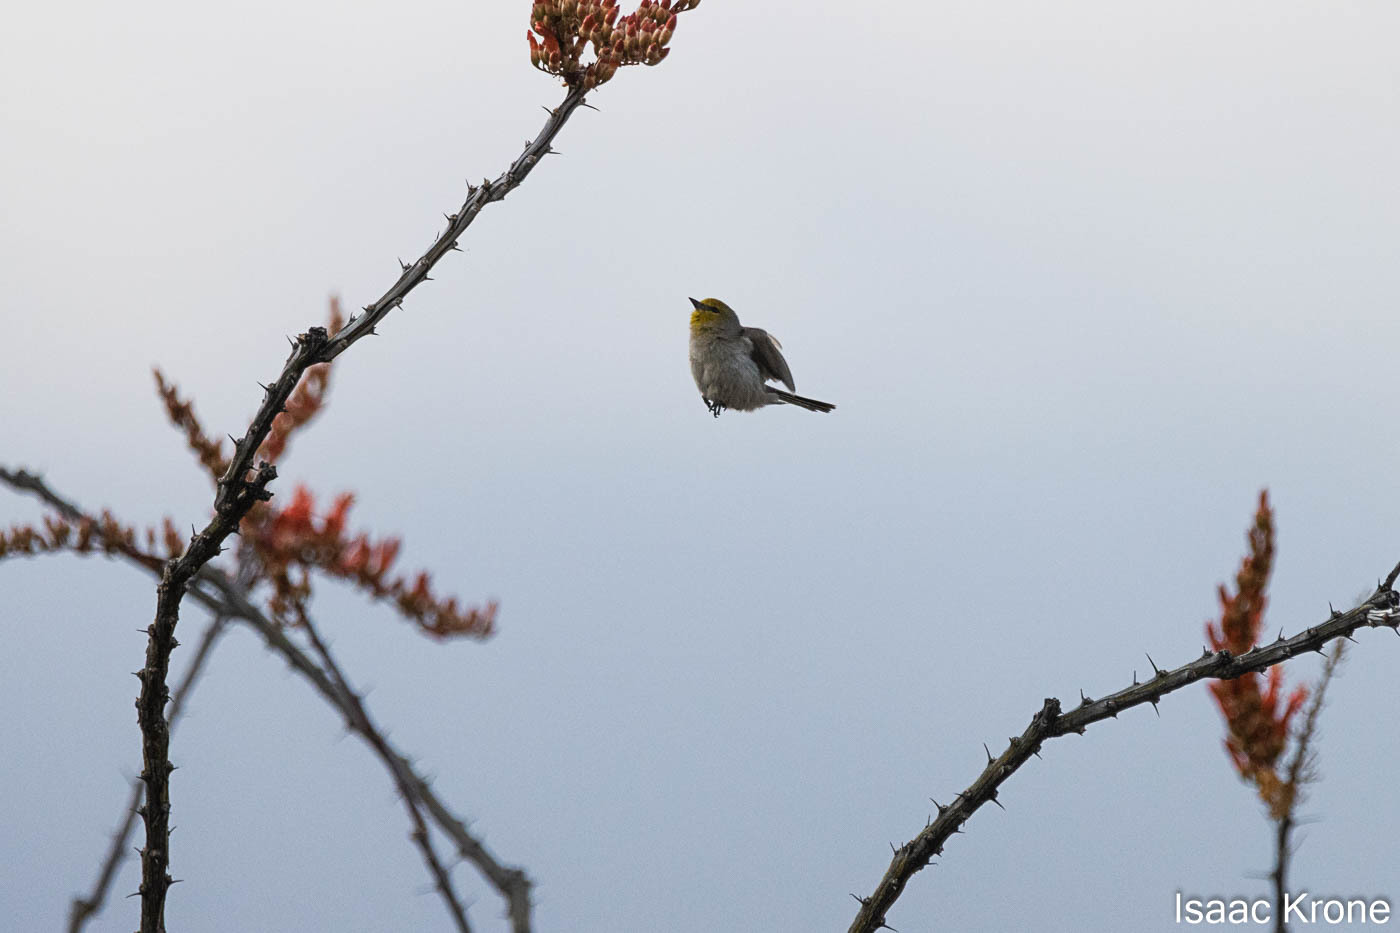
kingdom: Animalia
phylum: Chordata
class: Aves
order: Passeriformes
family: Remizidae
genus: Auriparus
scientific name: Auriparus flaviceps
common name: Verdin
